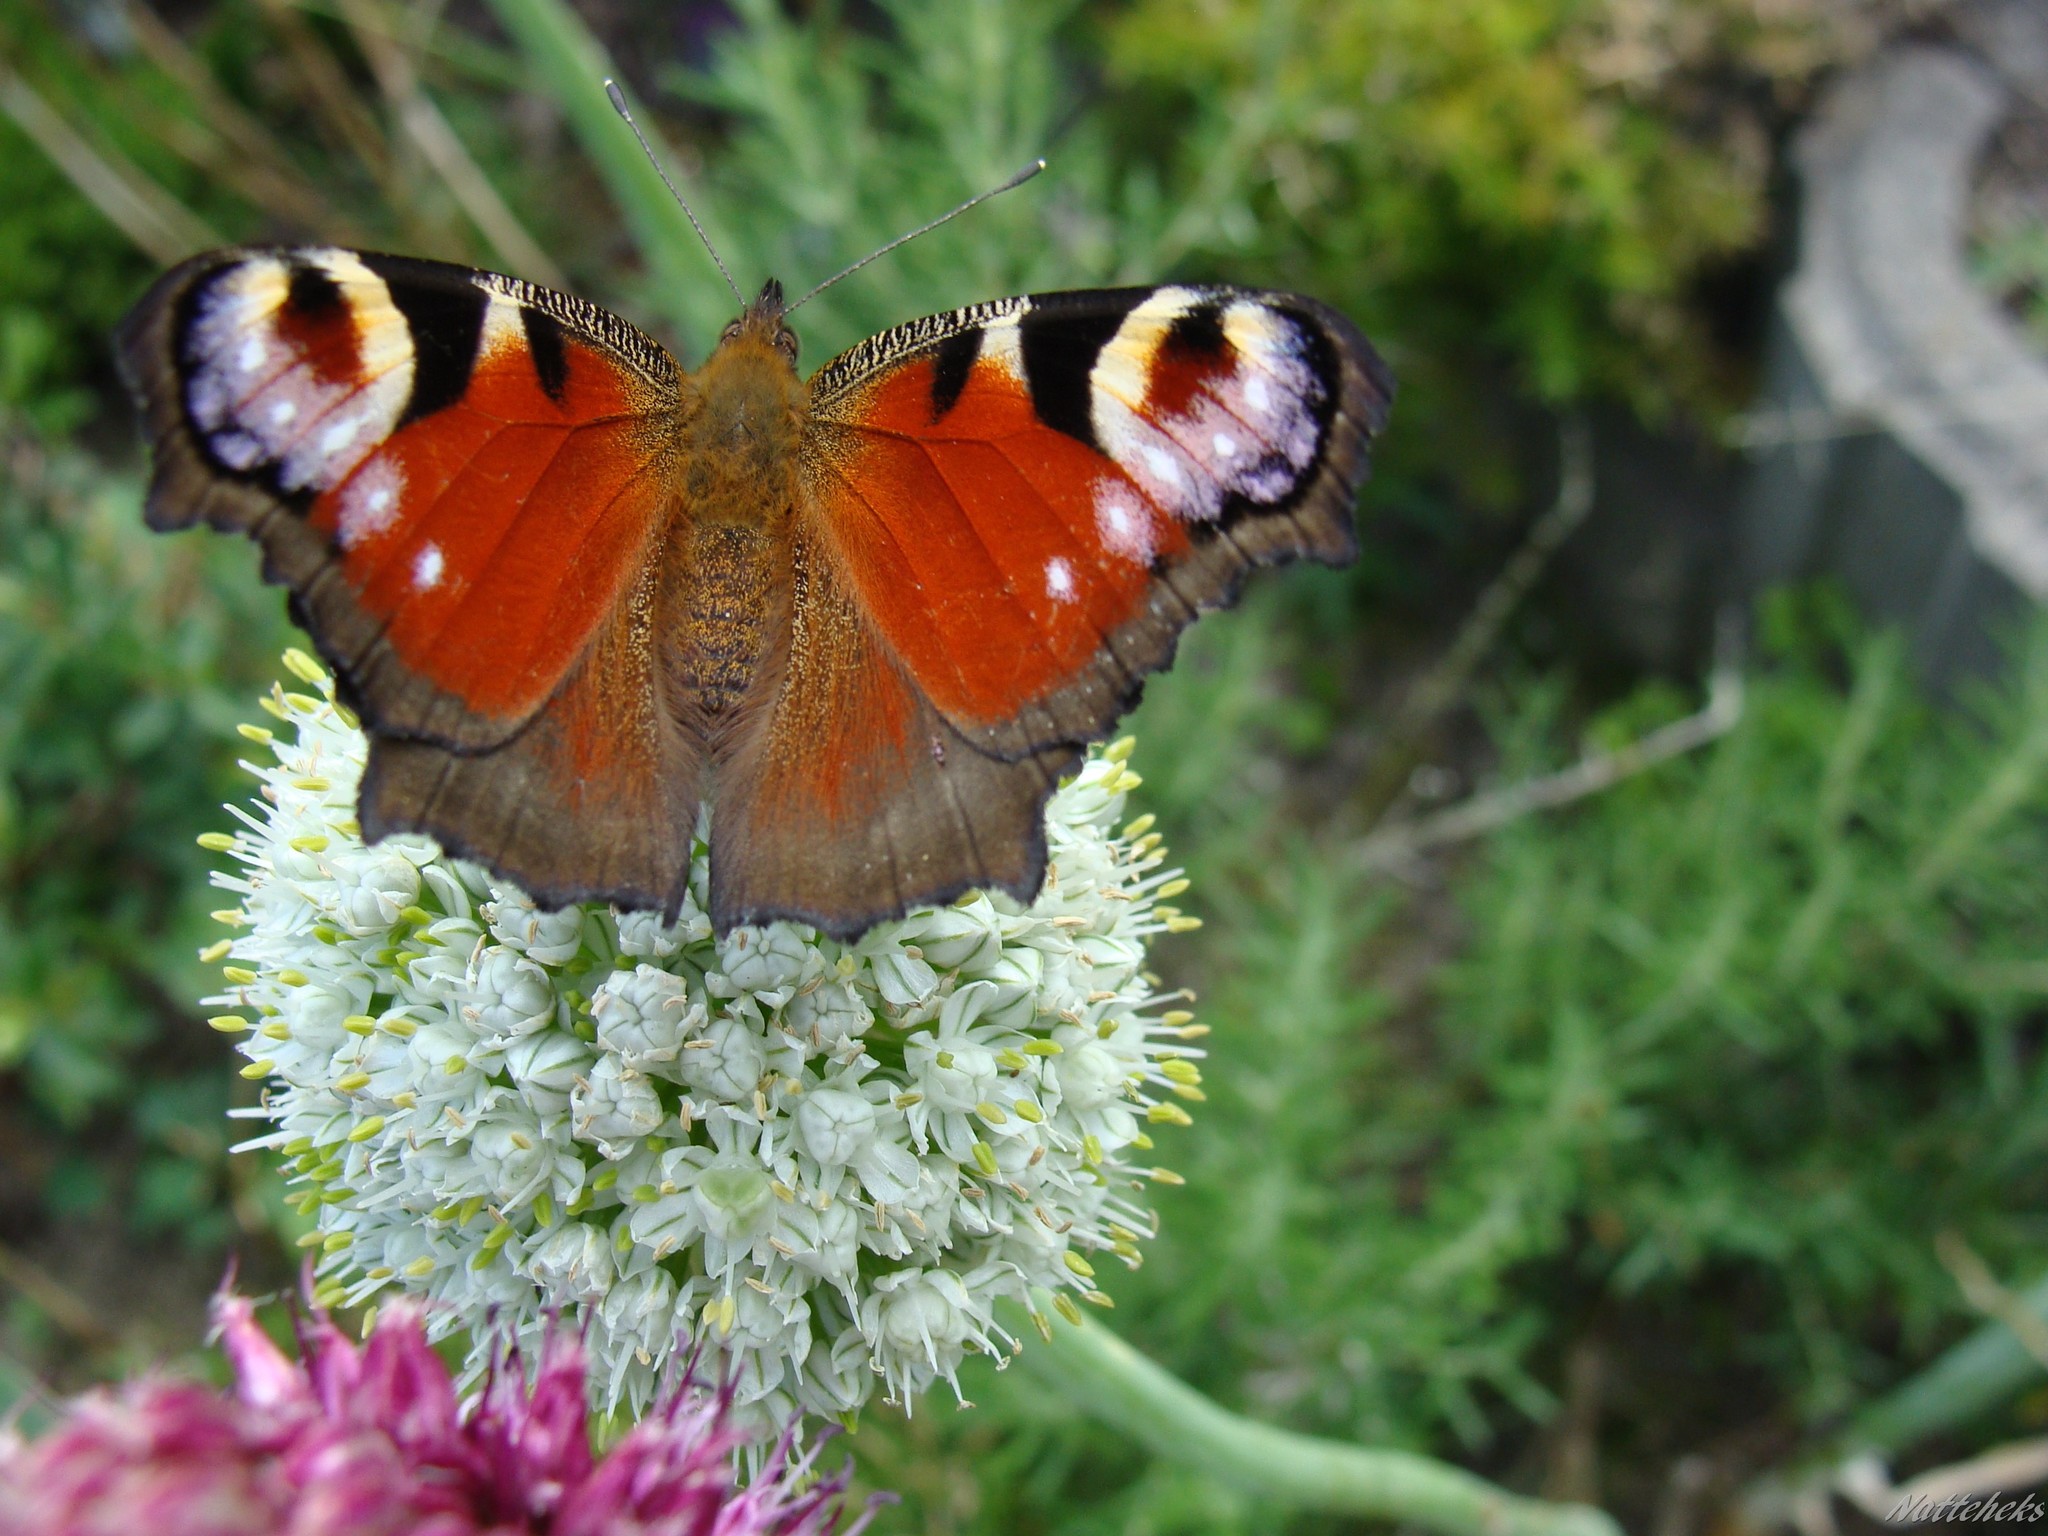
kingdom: Animalia
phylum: Arthropoda
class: Insecta
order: Lepidoptera
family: Nymphalidae
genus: Aglais
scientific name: Aglais io
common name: Peacock
